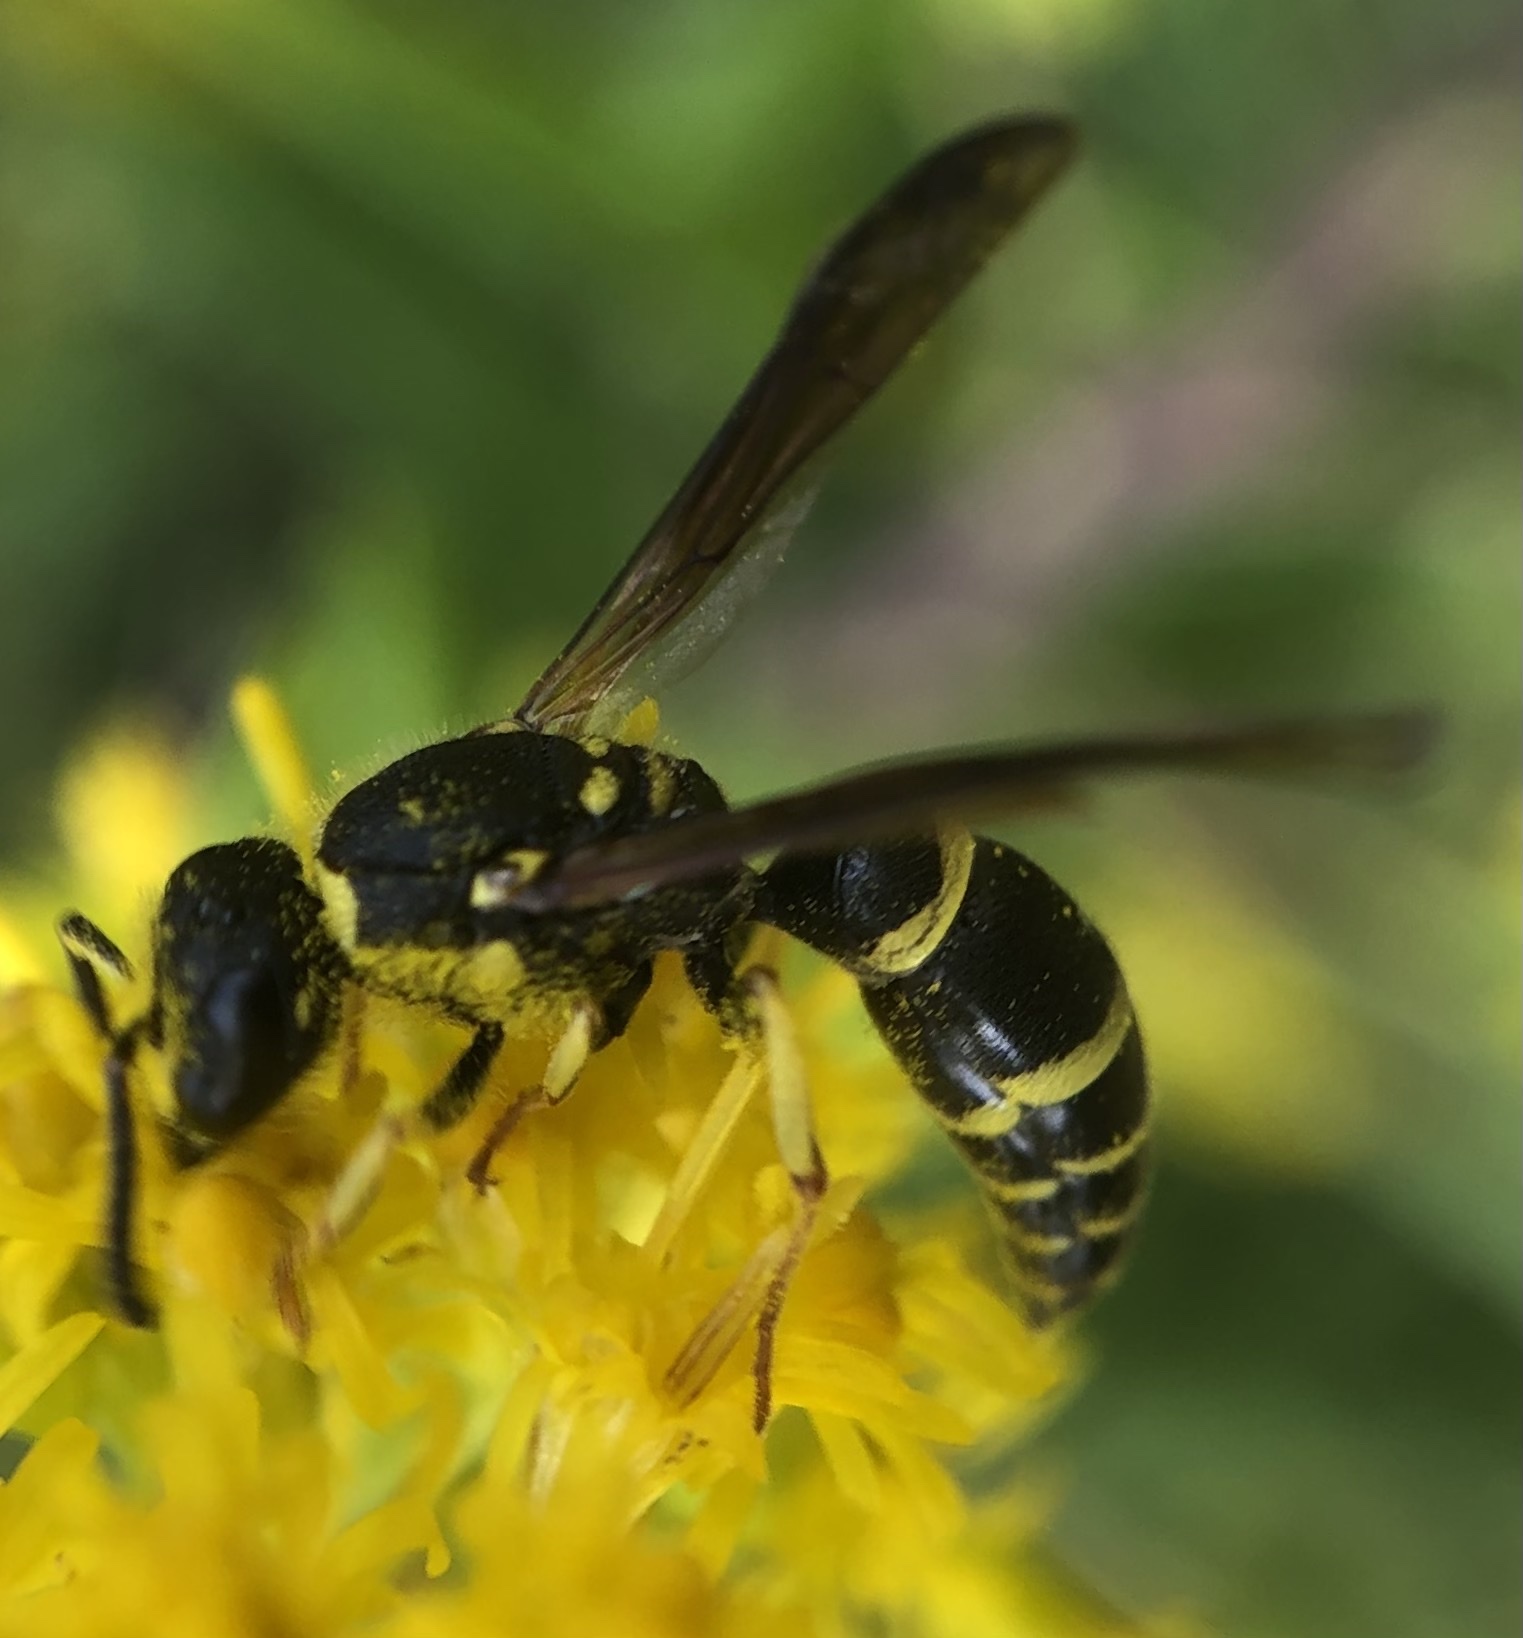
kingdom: Animalia
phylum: Arthropoda
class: Insecta
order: Hymenoptera
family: Vespidae
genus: Ancistrocerus
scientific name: Ancistrocerus adiabatus
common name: Bramble mason wasp
